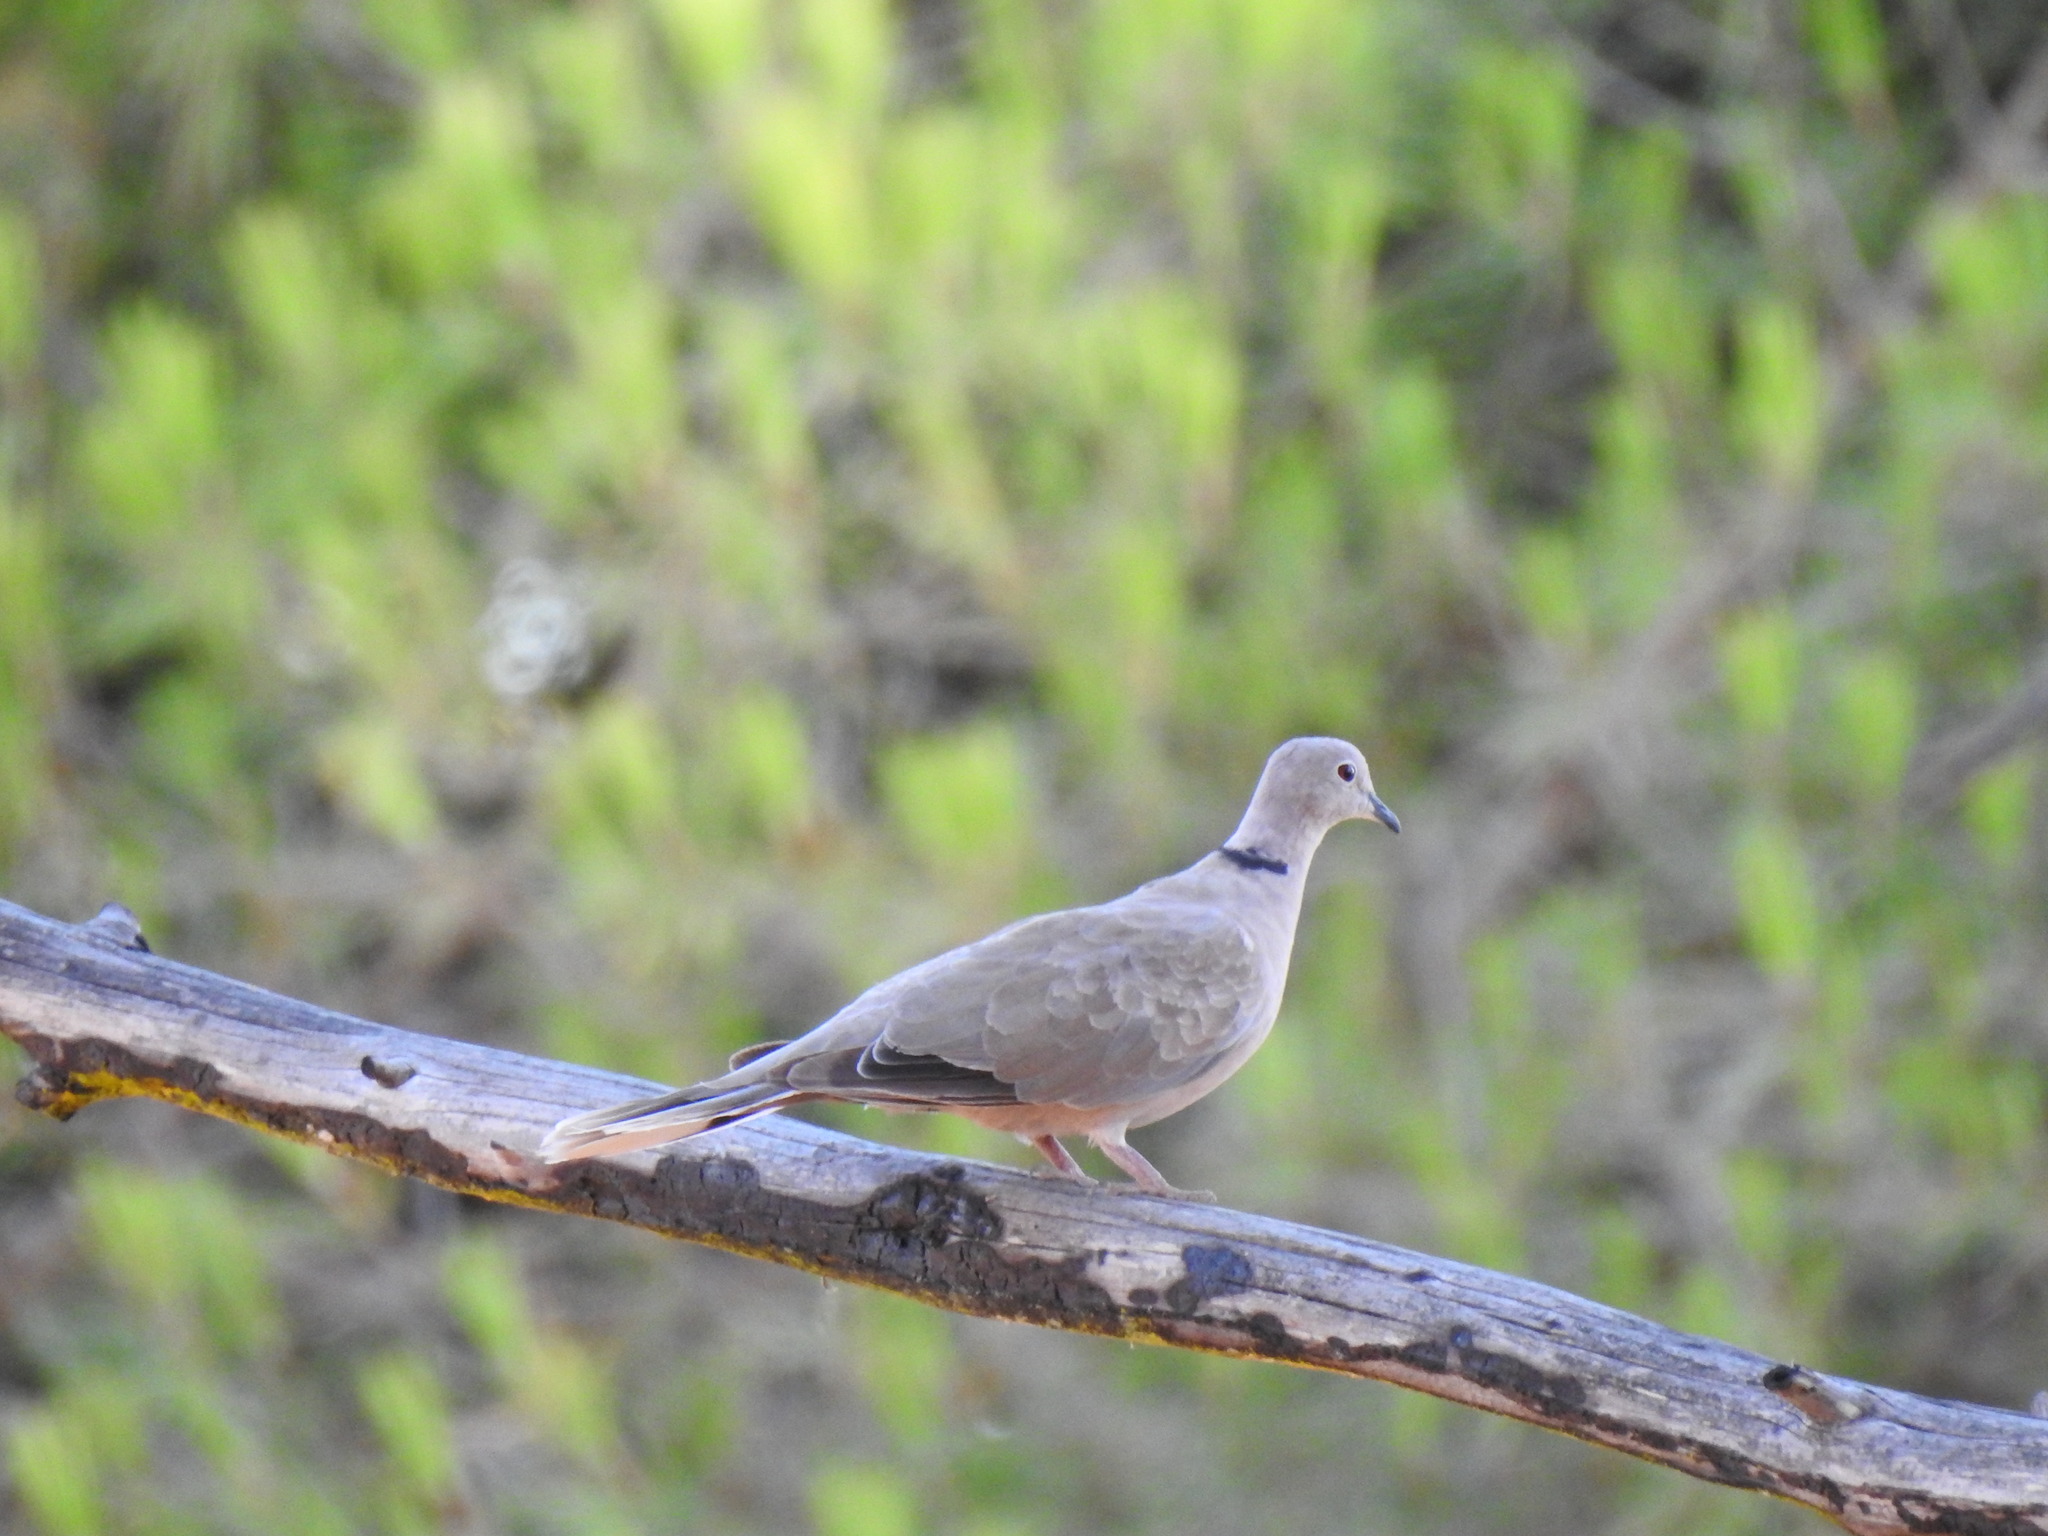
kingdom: Animalia
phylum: Chordata
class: Aves
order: Columbiformes
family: Columbidae
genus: Streptopelia
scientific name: Streptopelia decaocto
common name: Eurasian collared dove
